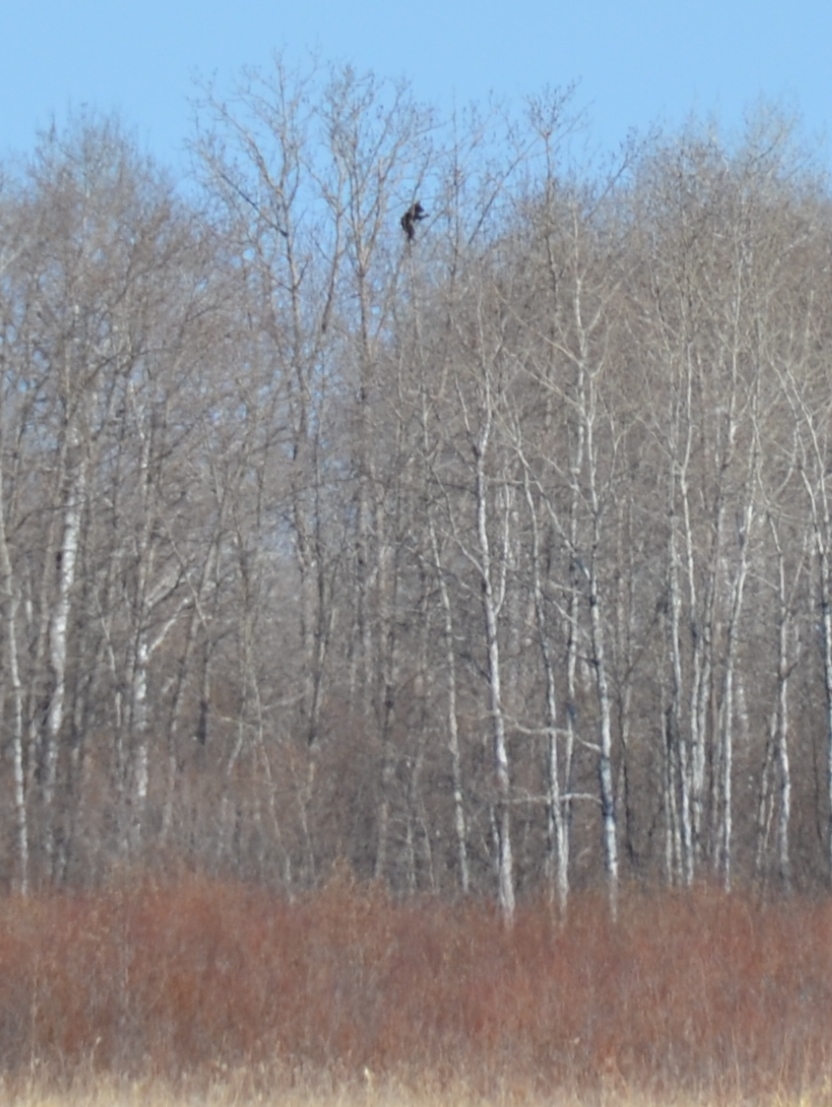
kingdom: Animalia
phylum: Chordata
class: Mammalia
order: Carnivora
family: Ursidae
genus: Ursus
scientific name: Ursus americanus
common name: American black bear
